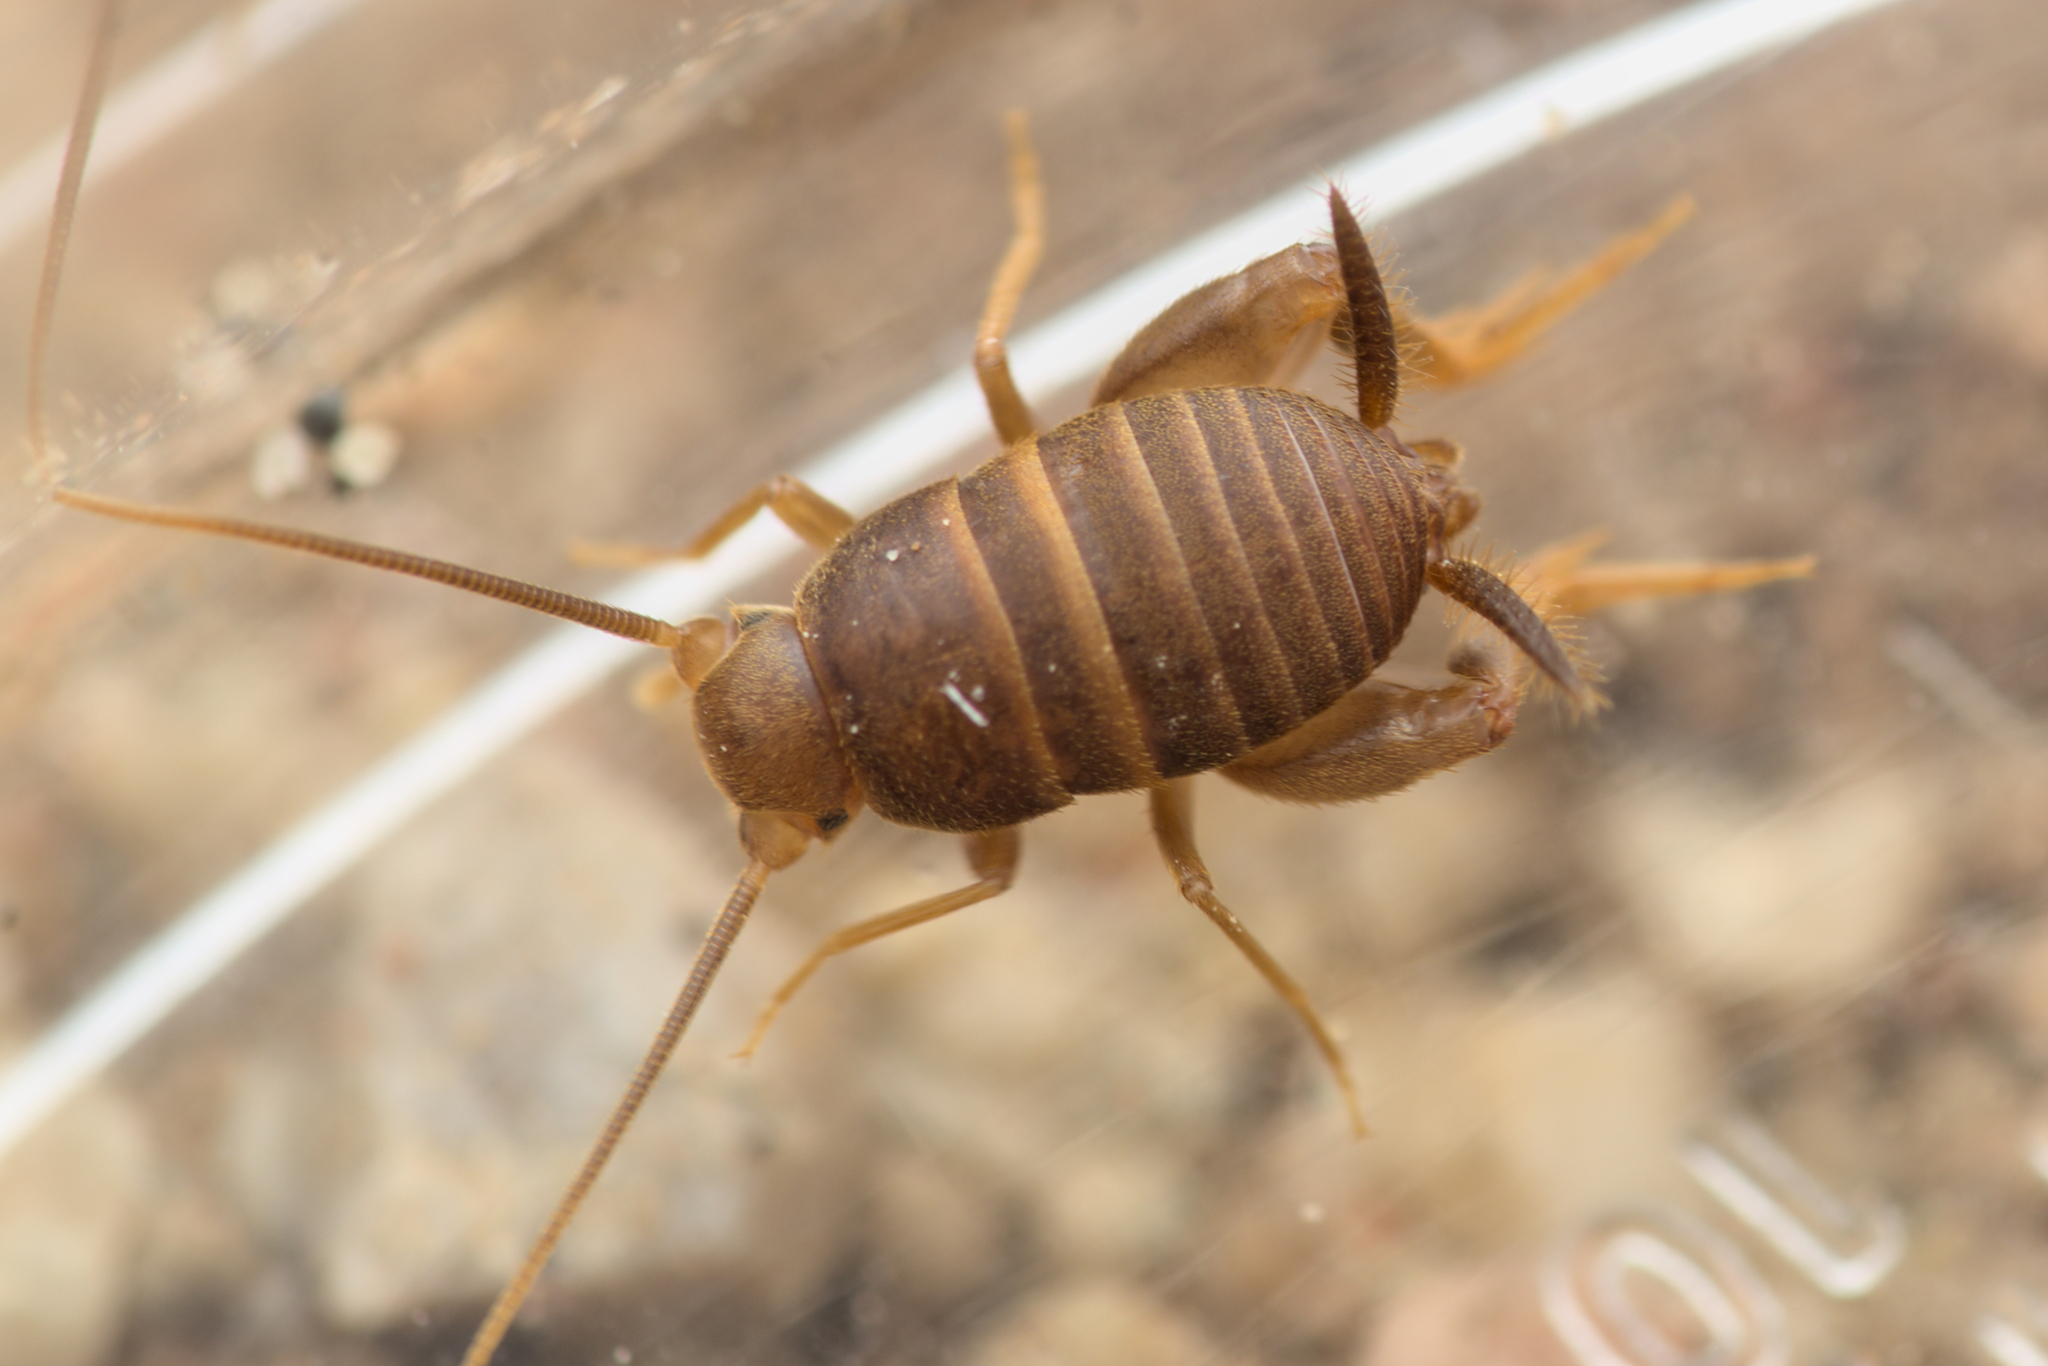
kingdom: Animalia
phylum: Arthropoda
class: Insecta
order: Orthoptera
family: Myrmecophilidae
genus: Myrmecophilus
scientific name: Myrmecophilus gallicus
